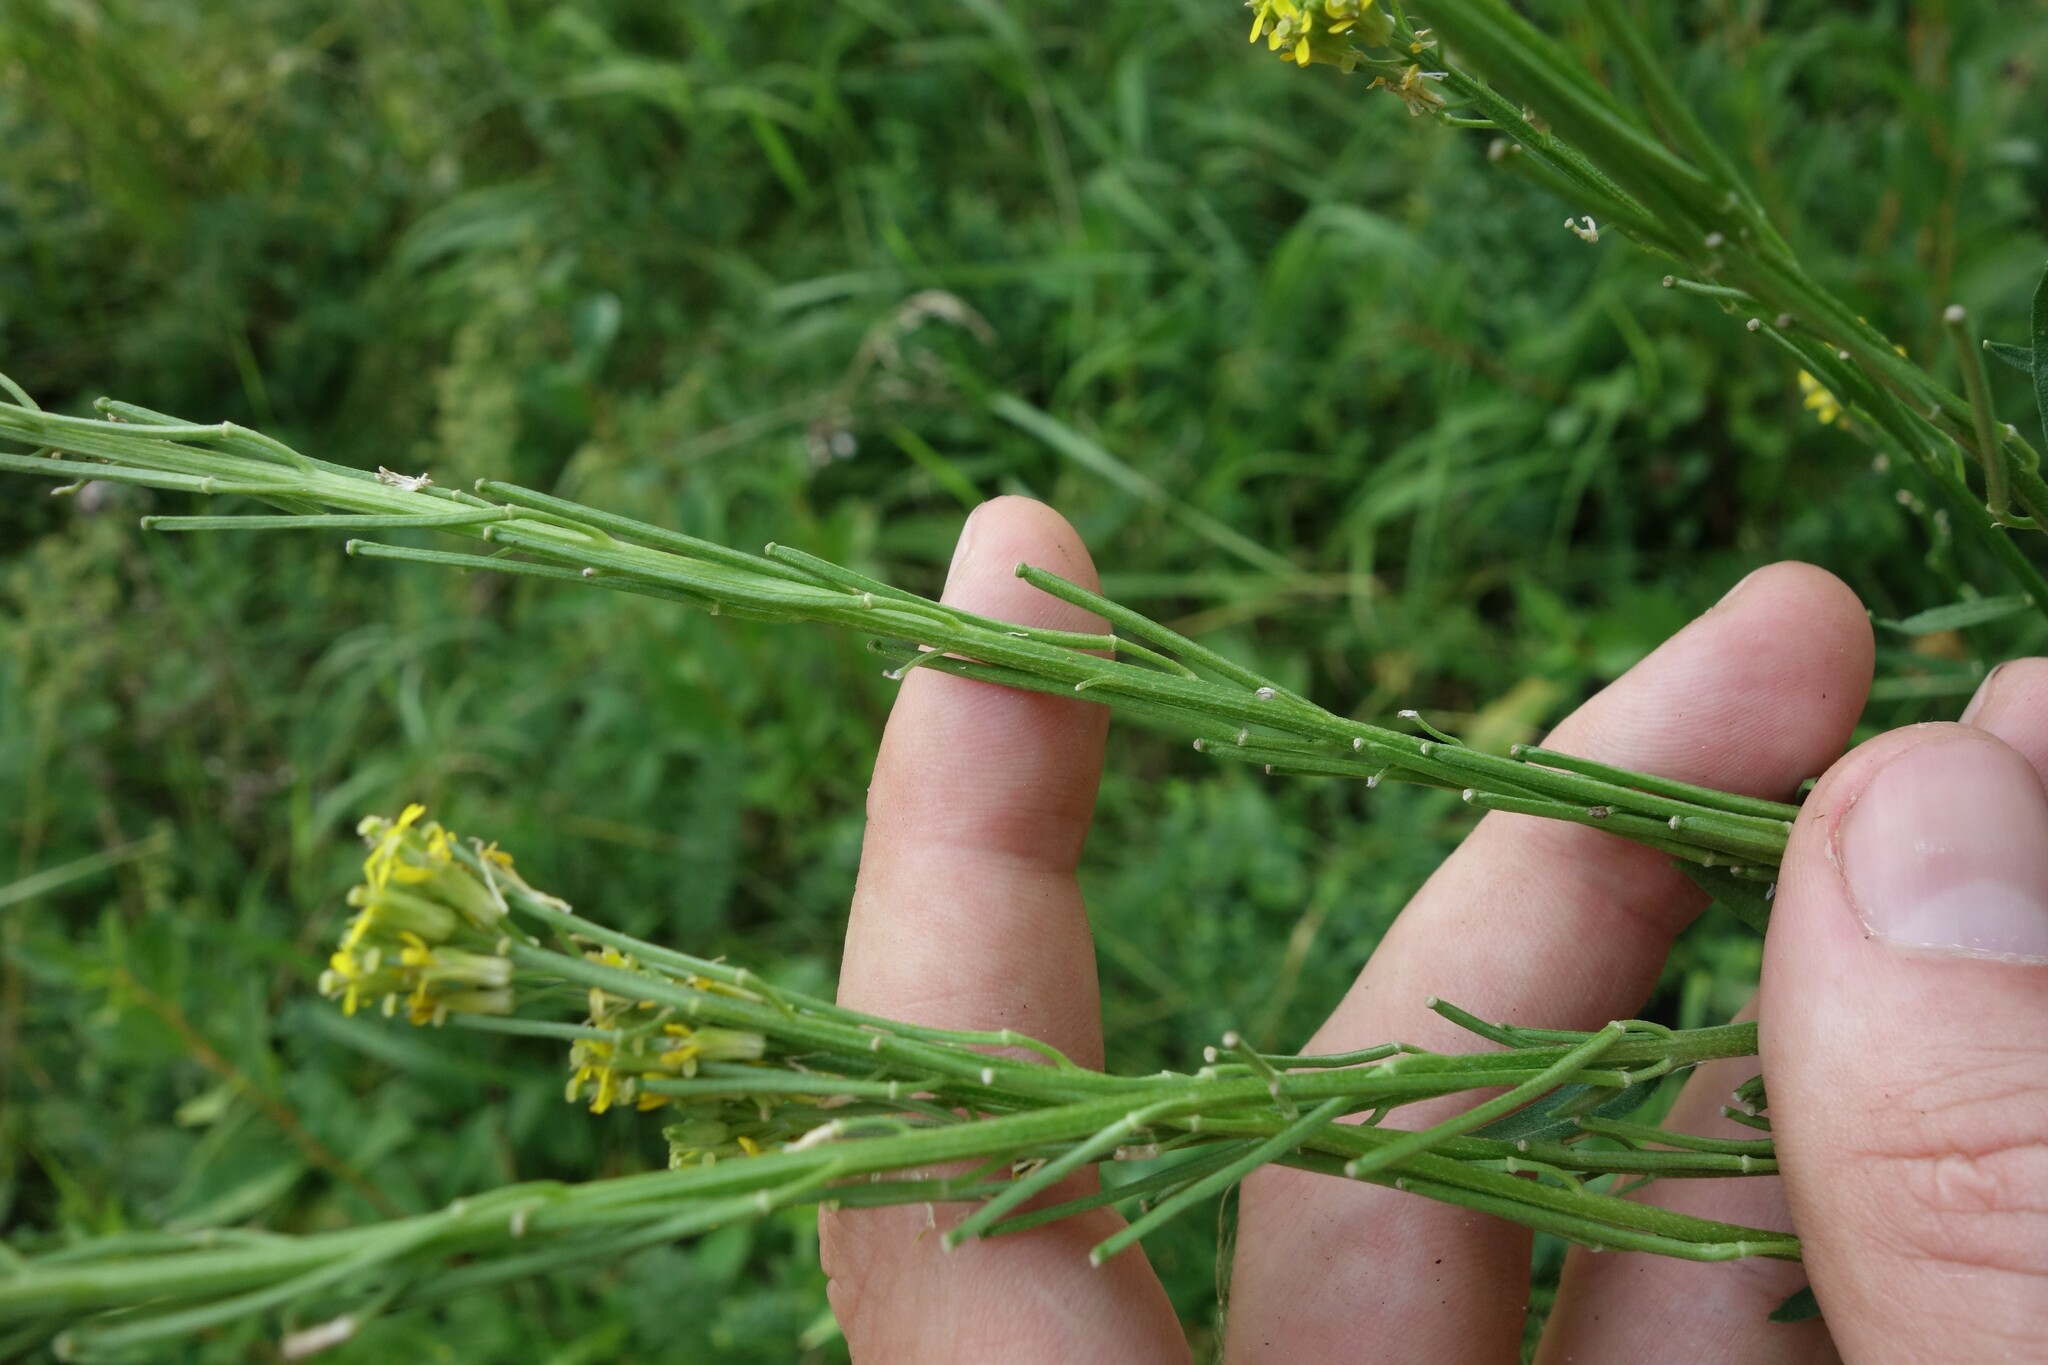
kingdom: Plantae
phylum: Tracheophyta
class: Magnoliopsida
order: Brassicales
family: Brassicaceae
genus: Erysimum
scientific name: Erysimum hieraciifolium
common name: European wallflower
